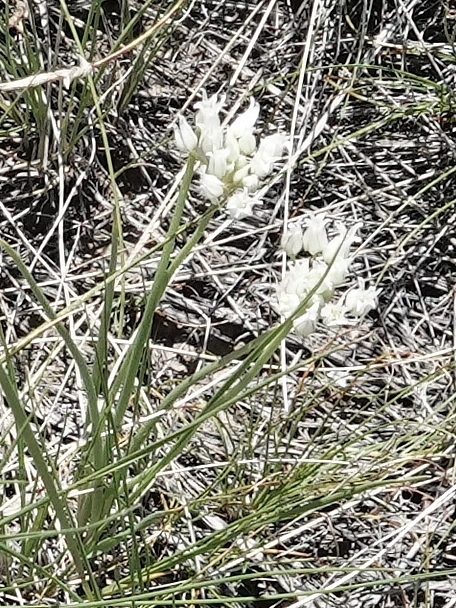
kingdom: Plantae
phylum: Tracheophyta
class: Liliopsida
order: Asparagales
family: Amaryllidaceae
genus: Allium
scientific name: Allium textile
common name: Prairie onion
